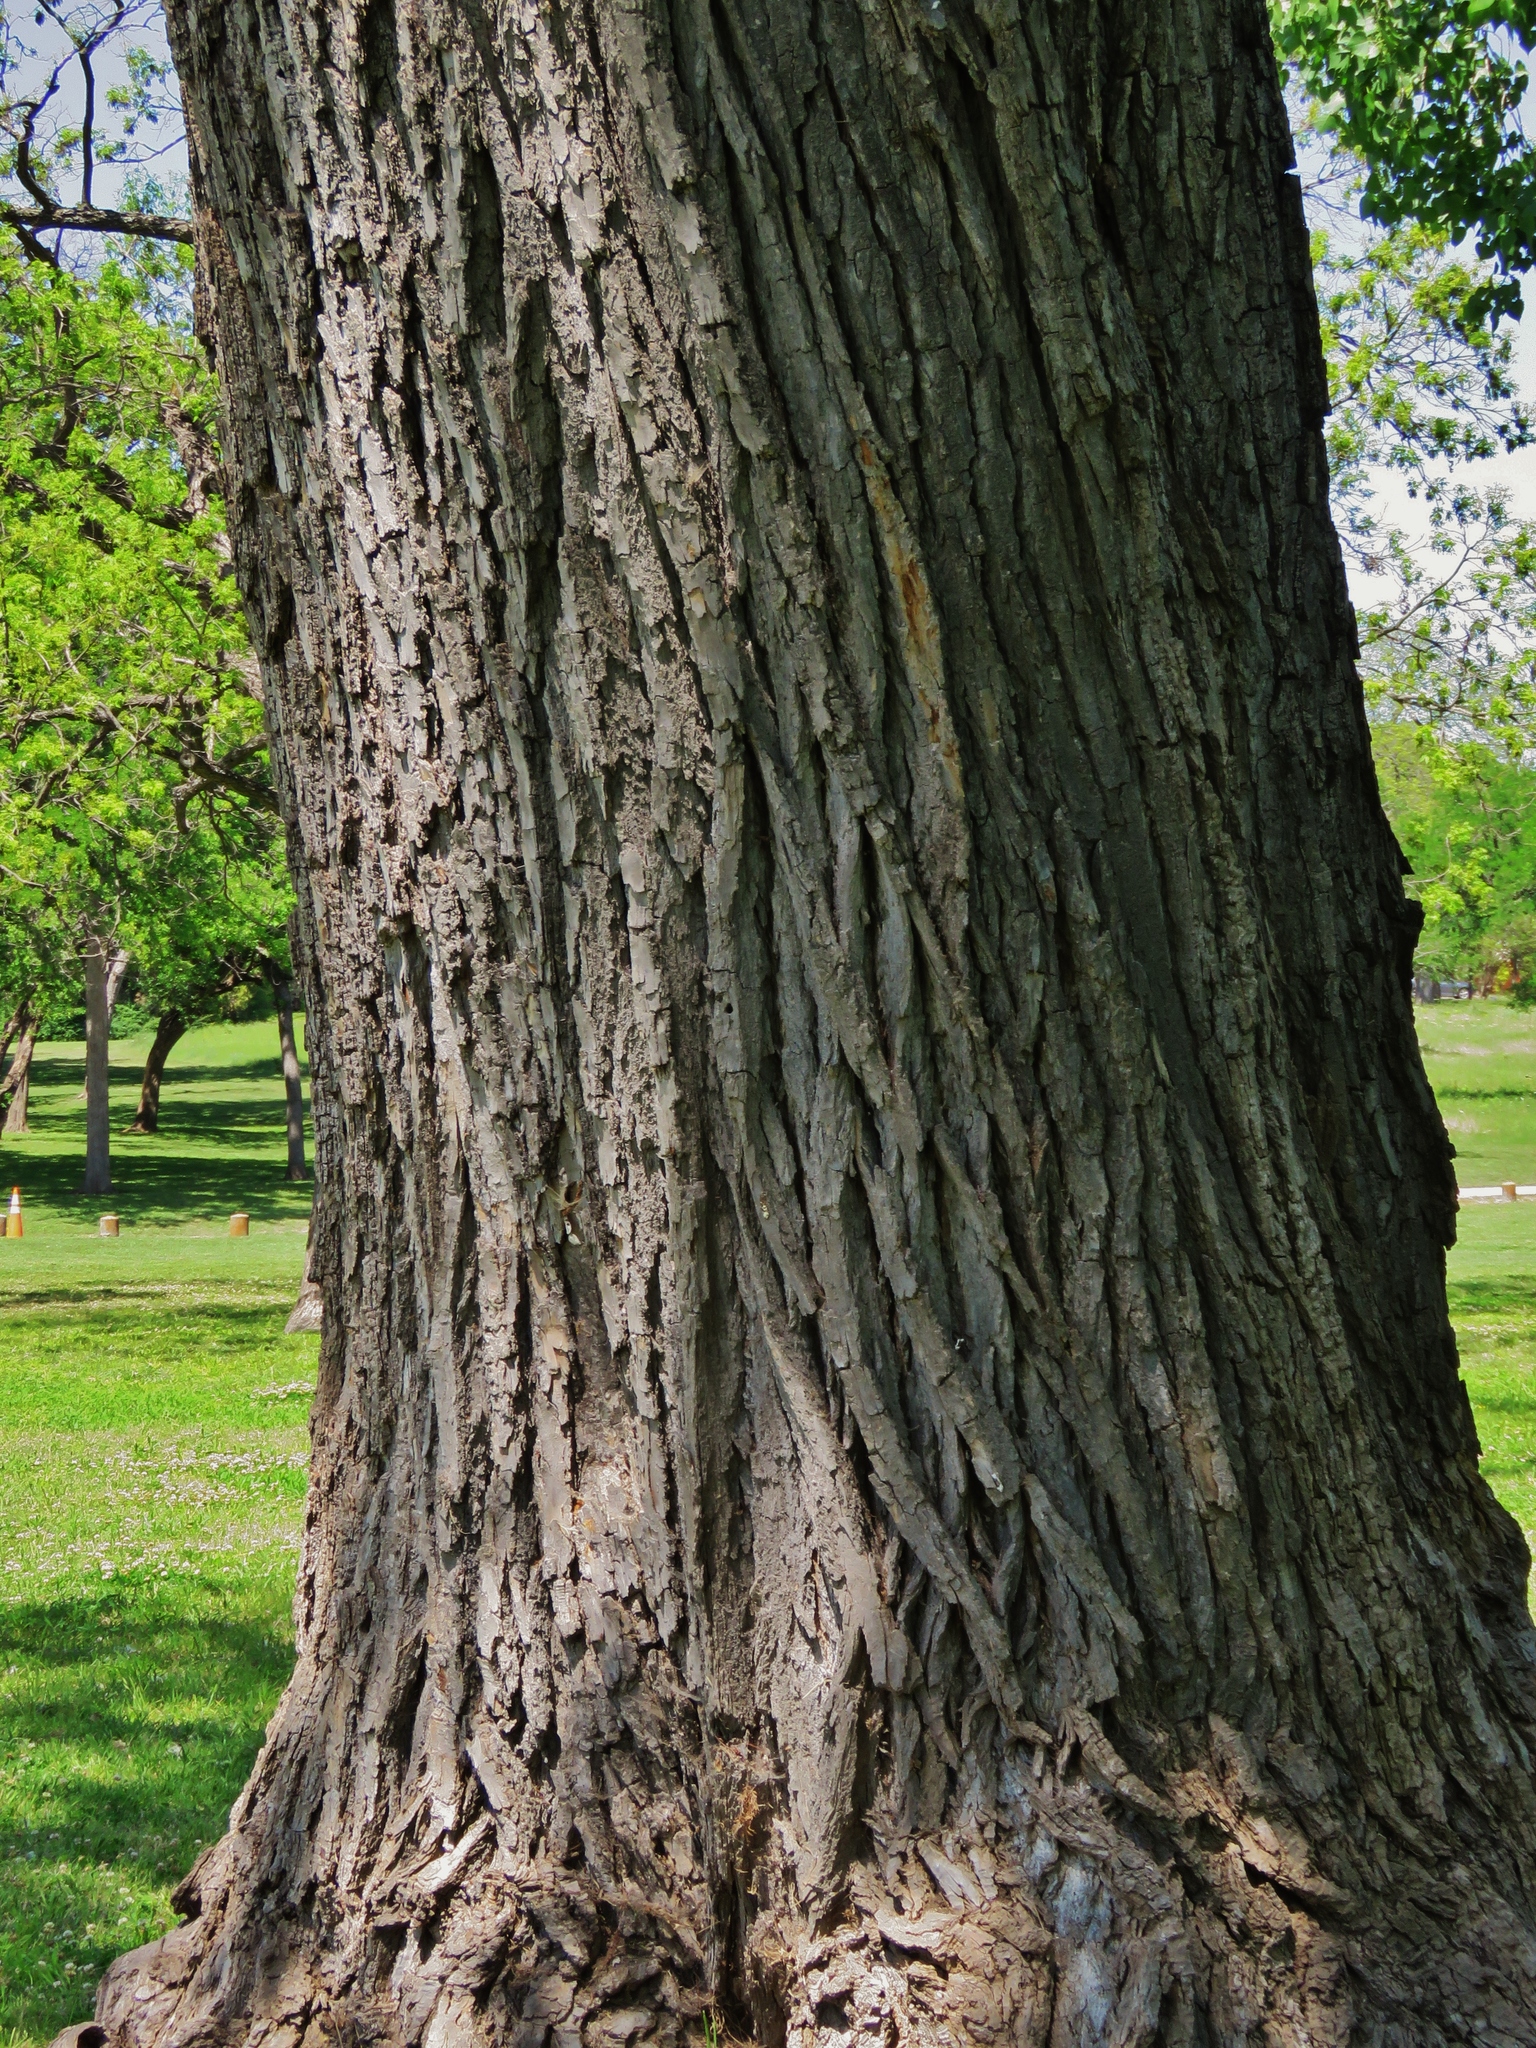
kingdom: Plantae
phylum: Tracheophyta
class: Magnoliopsida
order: Malpighiales
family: Salicaceae
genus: Populus
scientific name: Populus deltoides
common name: Eastern cottonwood
